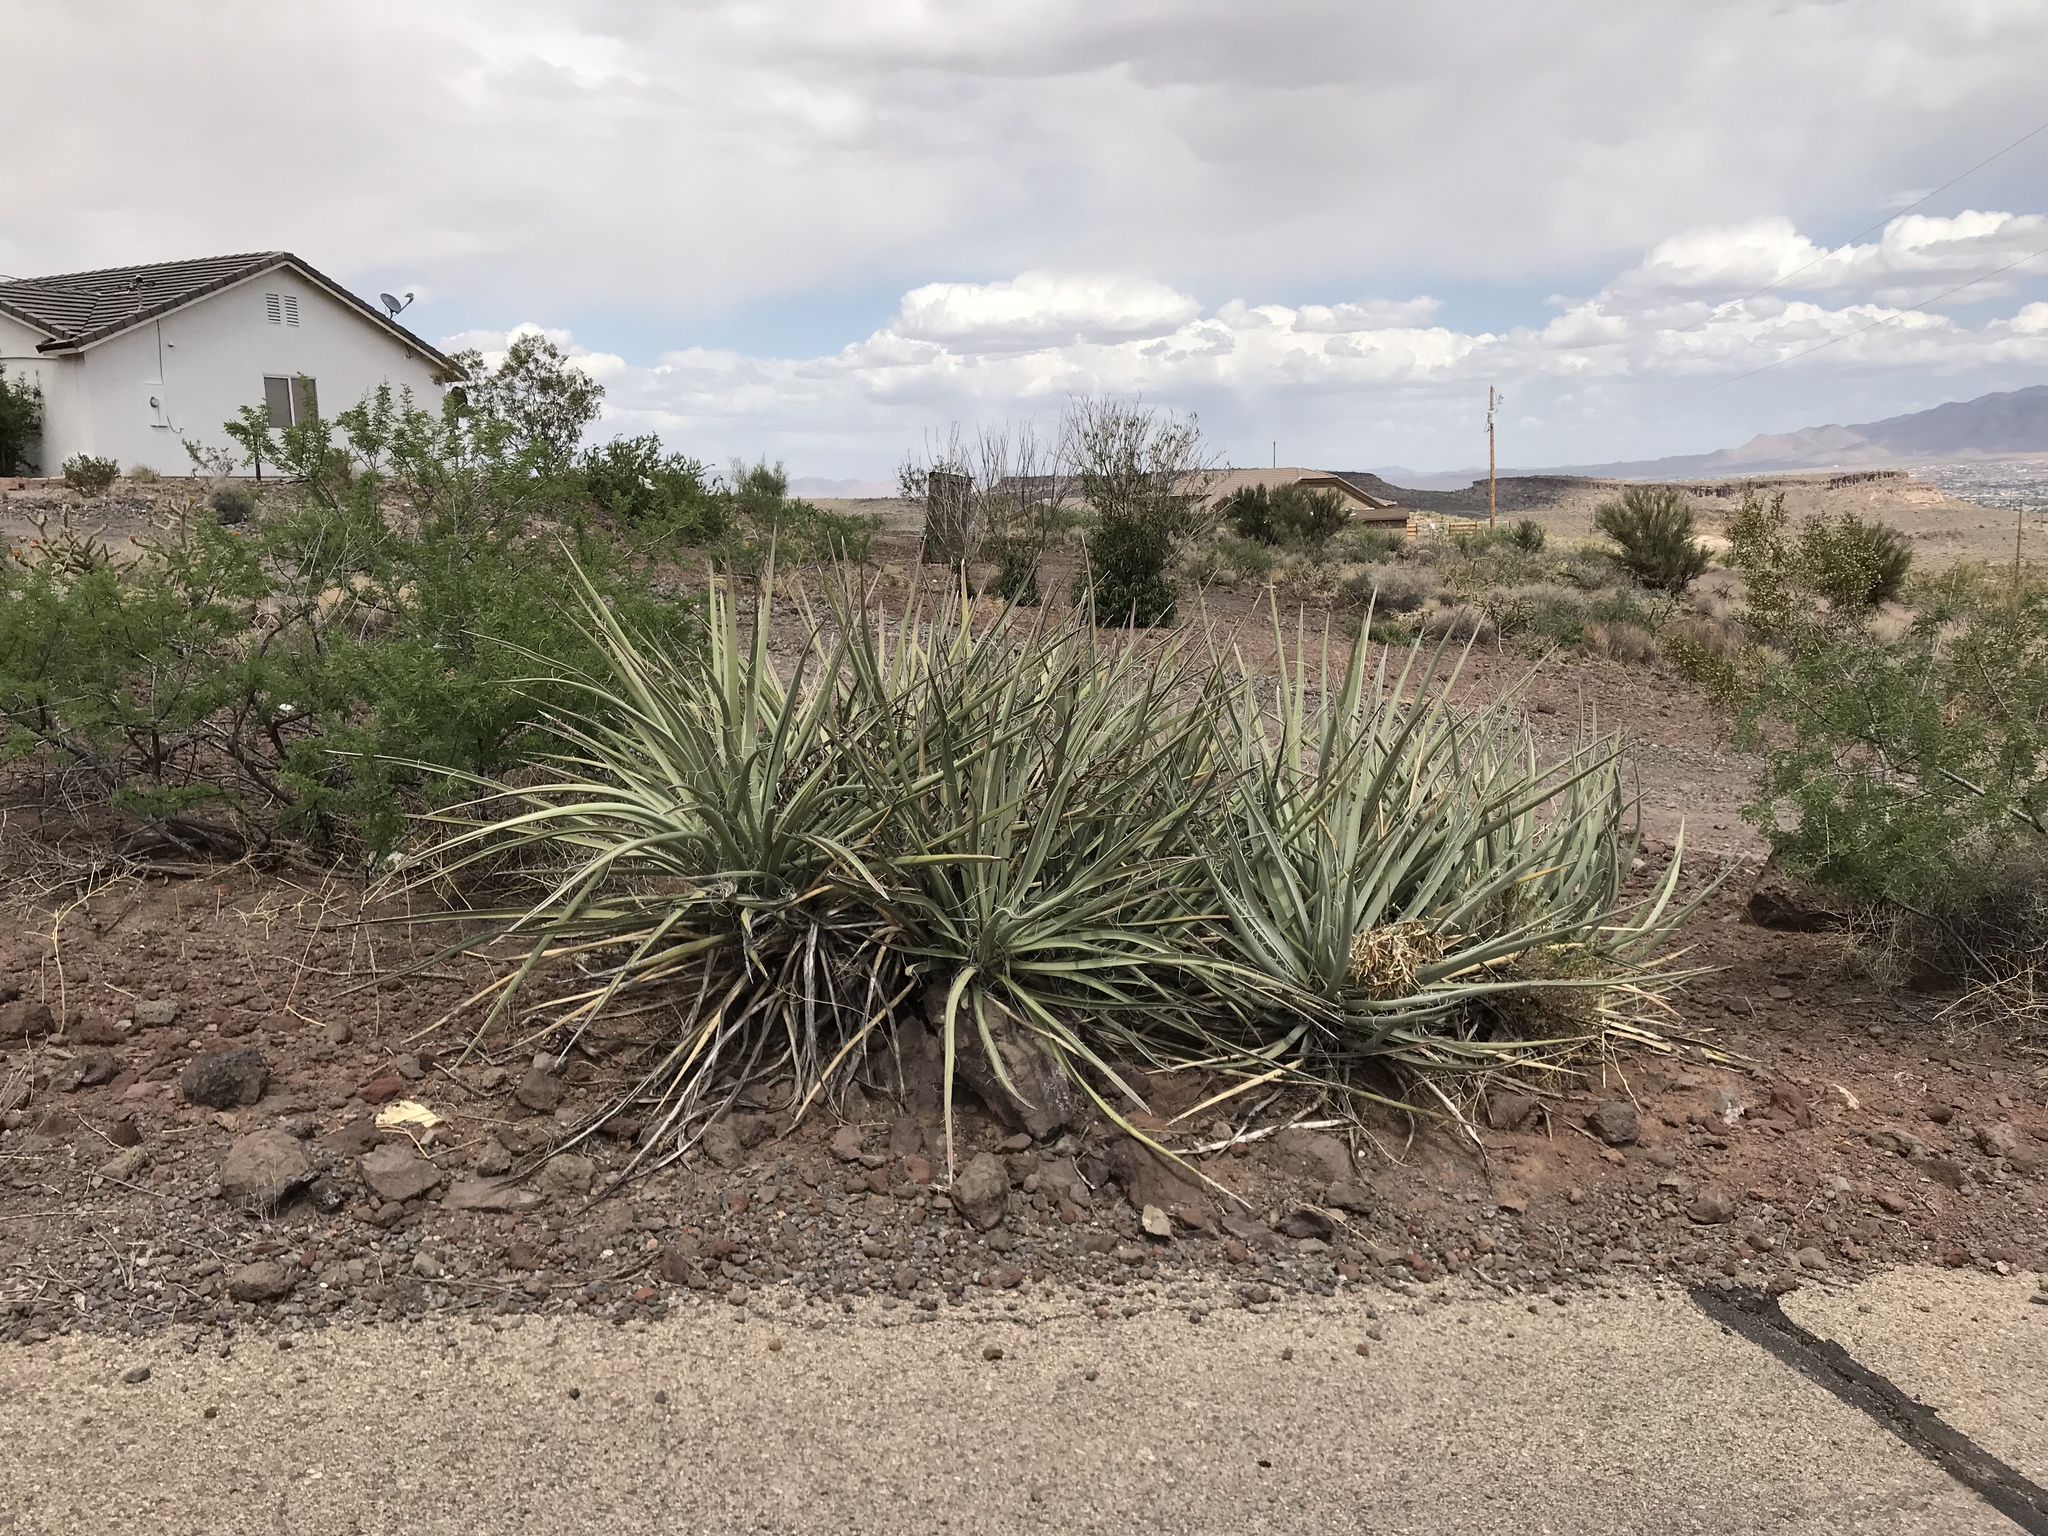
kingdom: Plantae
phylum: Tracheophyta
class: Liliopsida
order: Asparagales
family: Asparagaceae
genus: Yucca
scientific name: Yucca baccata
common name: Banana yucca
